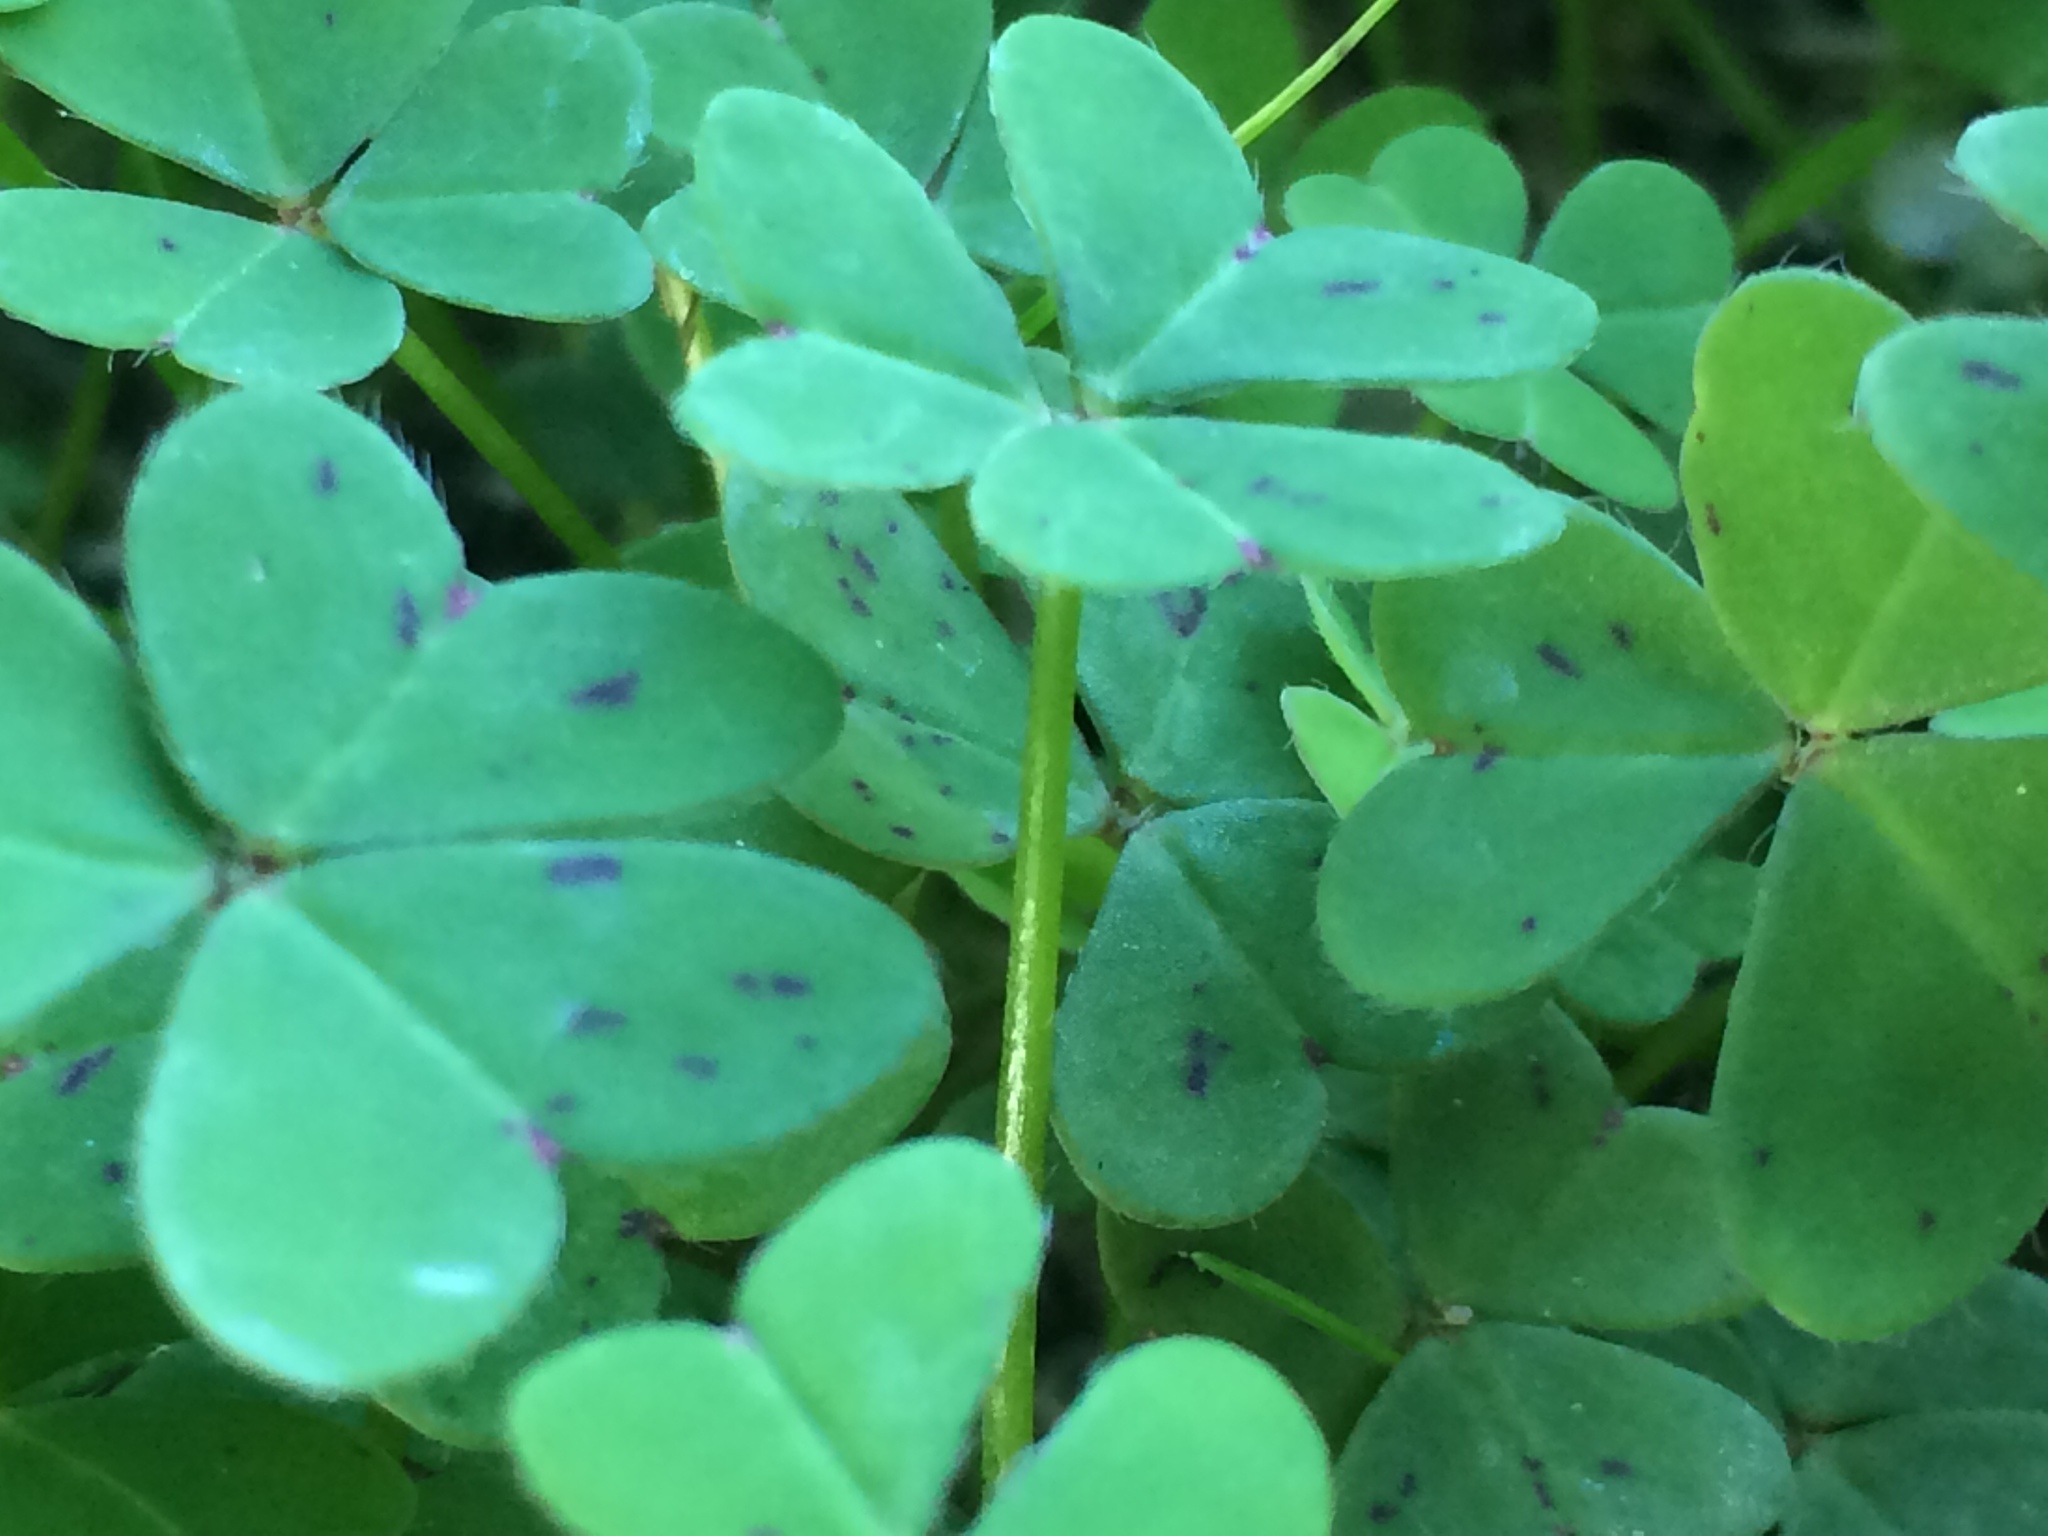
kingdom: Plantae
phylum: Tracheophyta
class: Magnoliopsida
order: Oxalidales
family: Oxalidaceae
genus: Oxalis
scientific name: Oxalis pes-caprae
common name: Bermuda-buttercup
